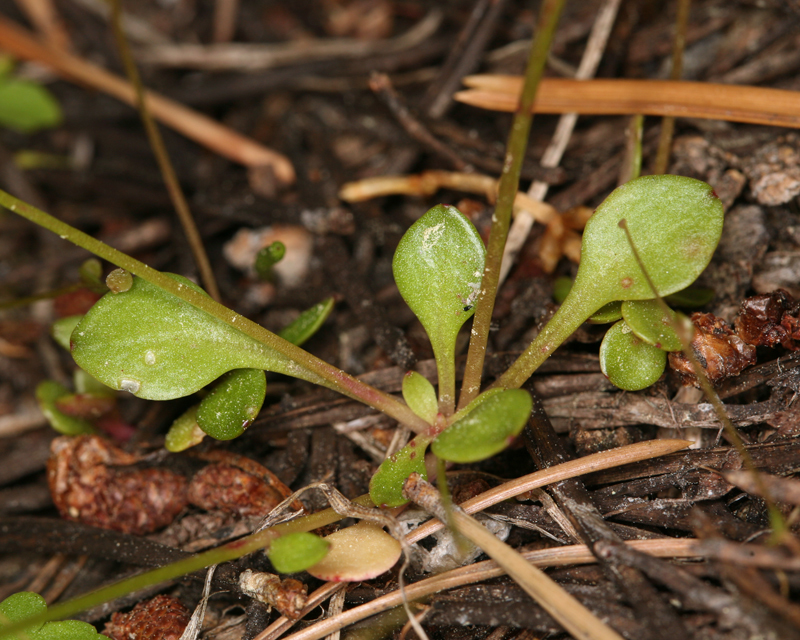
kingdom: Plantae
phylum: Tracheophyta
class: Magnoliopsida
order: Caryophyllales
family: Montiaceae
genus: Montia
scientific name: Montia parvifolia
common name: Small-leaved blinks
